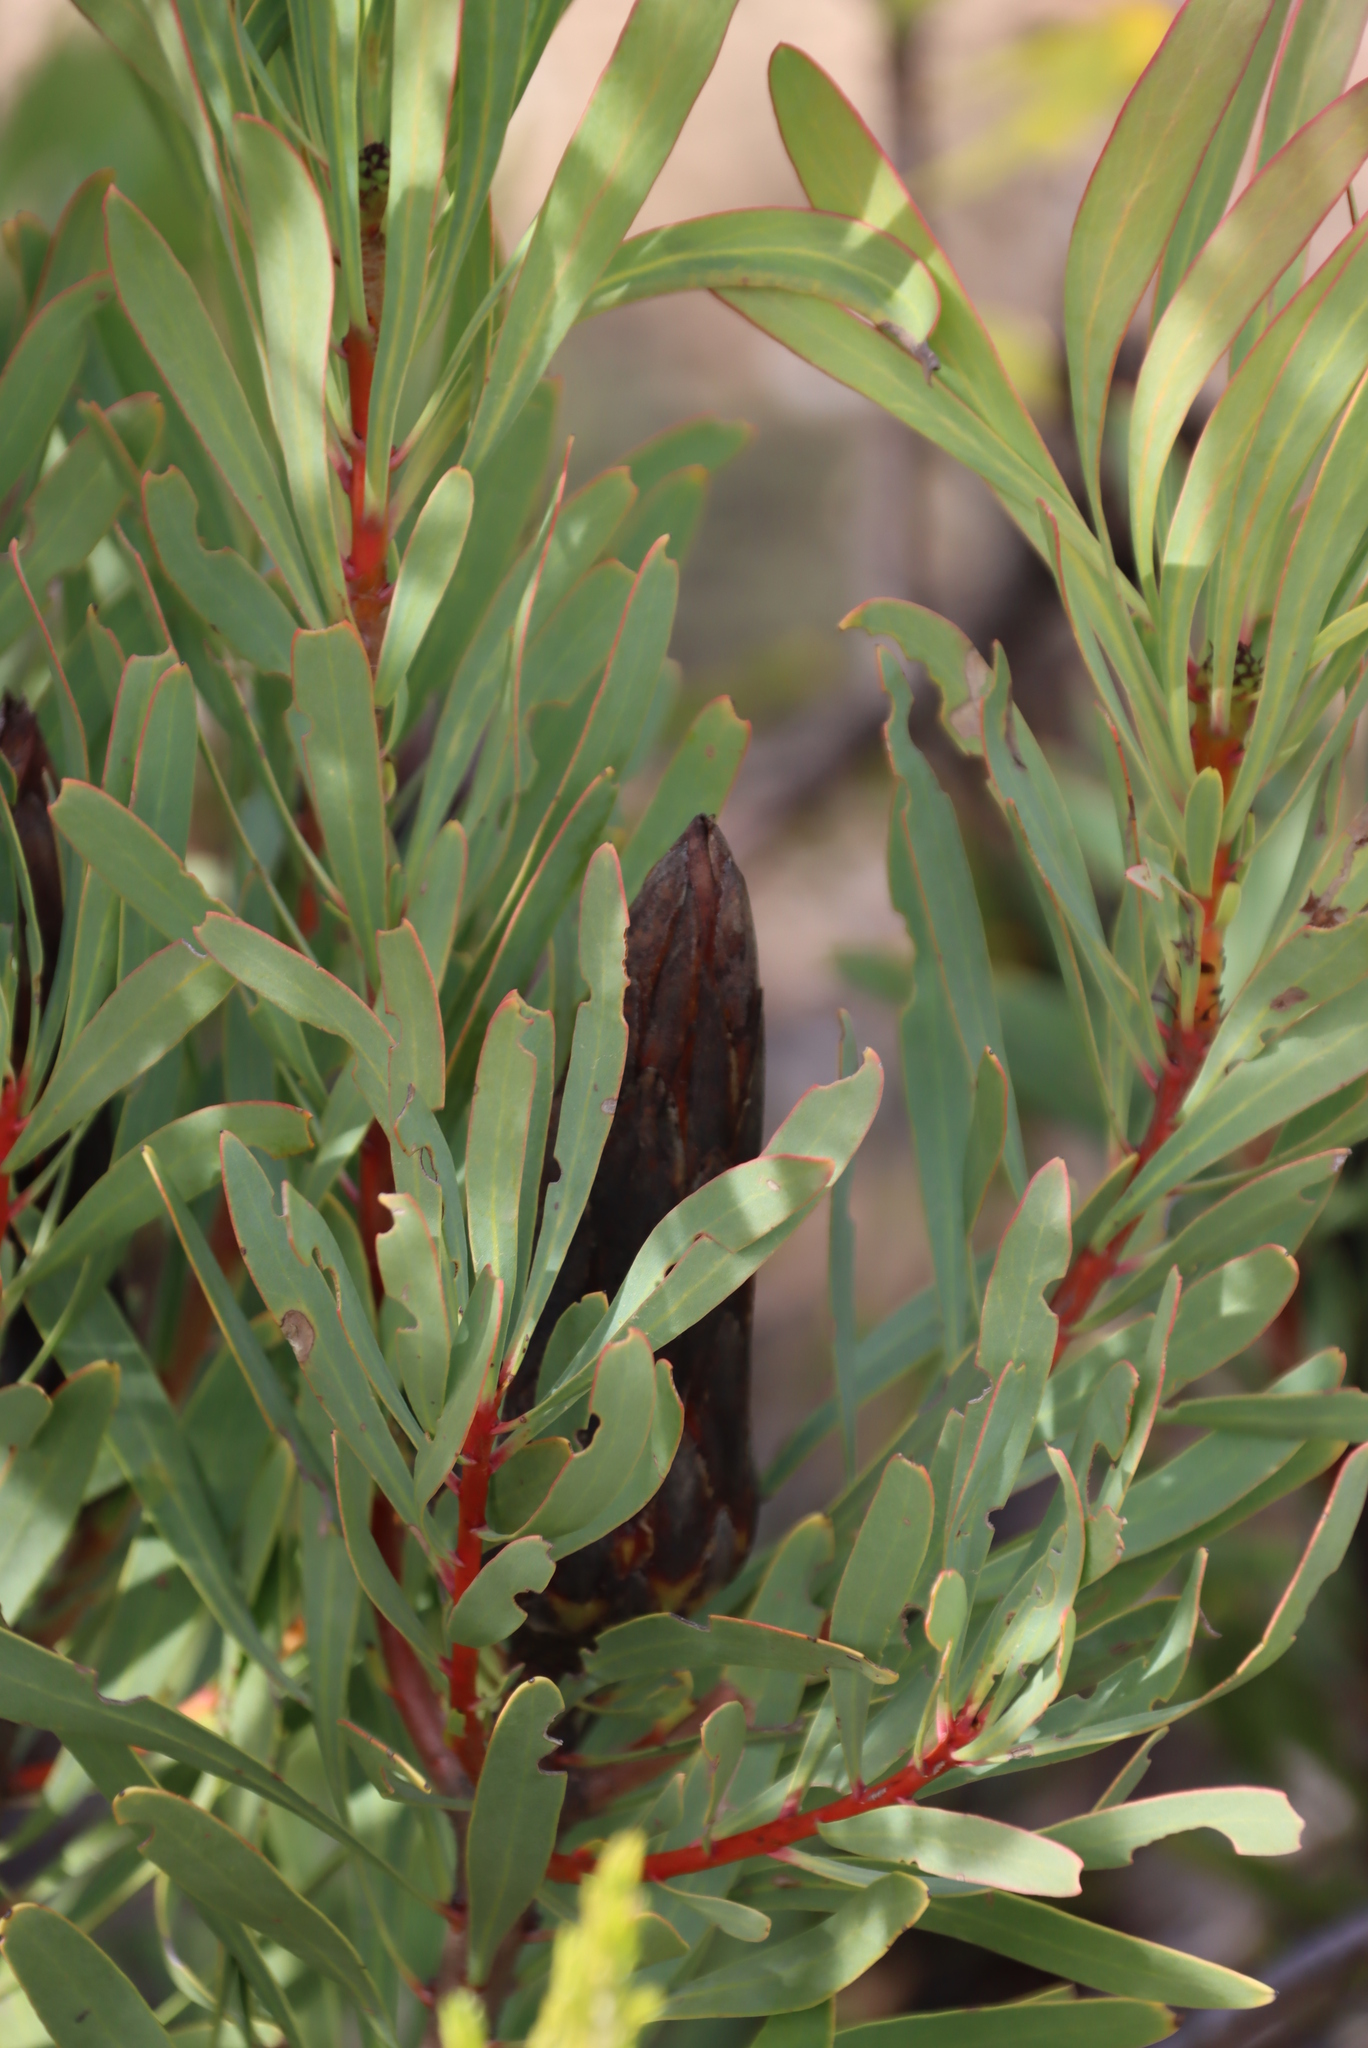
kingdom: Plantae
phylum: Tracheophyta
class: Magnoliopsida
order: Proteales
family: Proteaceae
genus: Protea
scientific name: Protea repens
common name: Sugarbush
